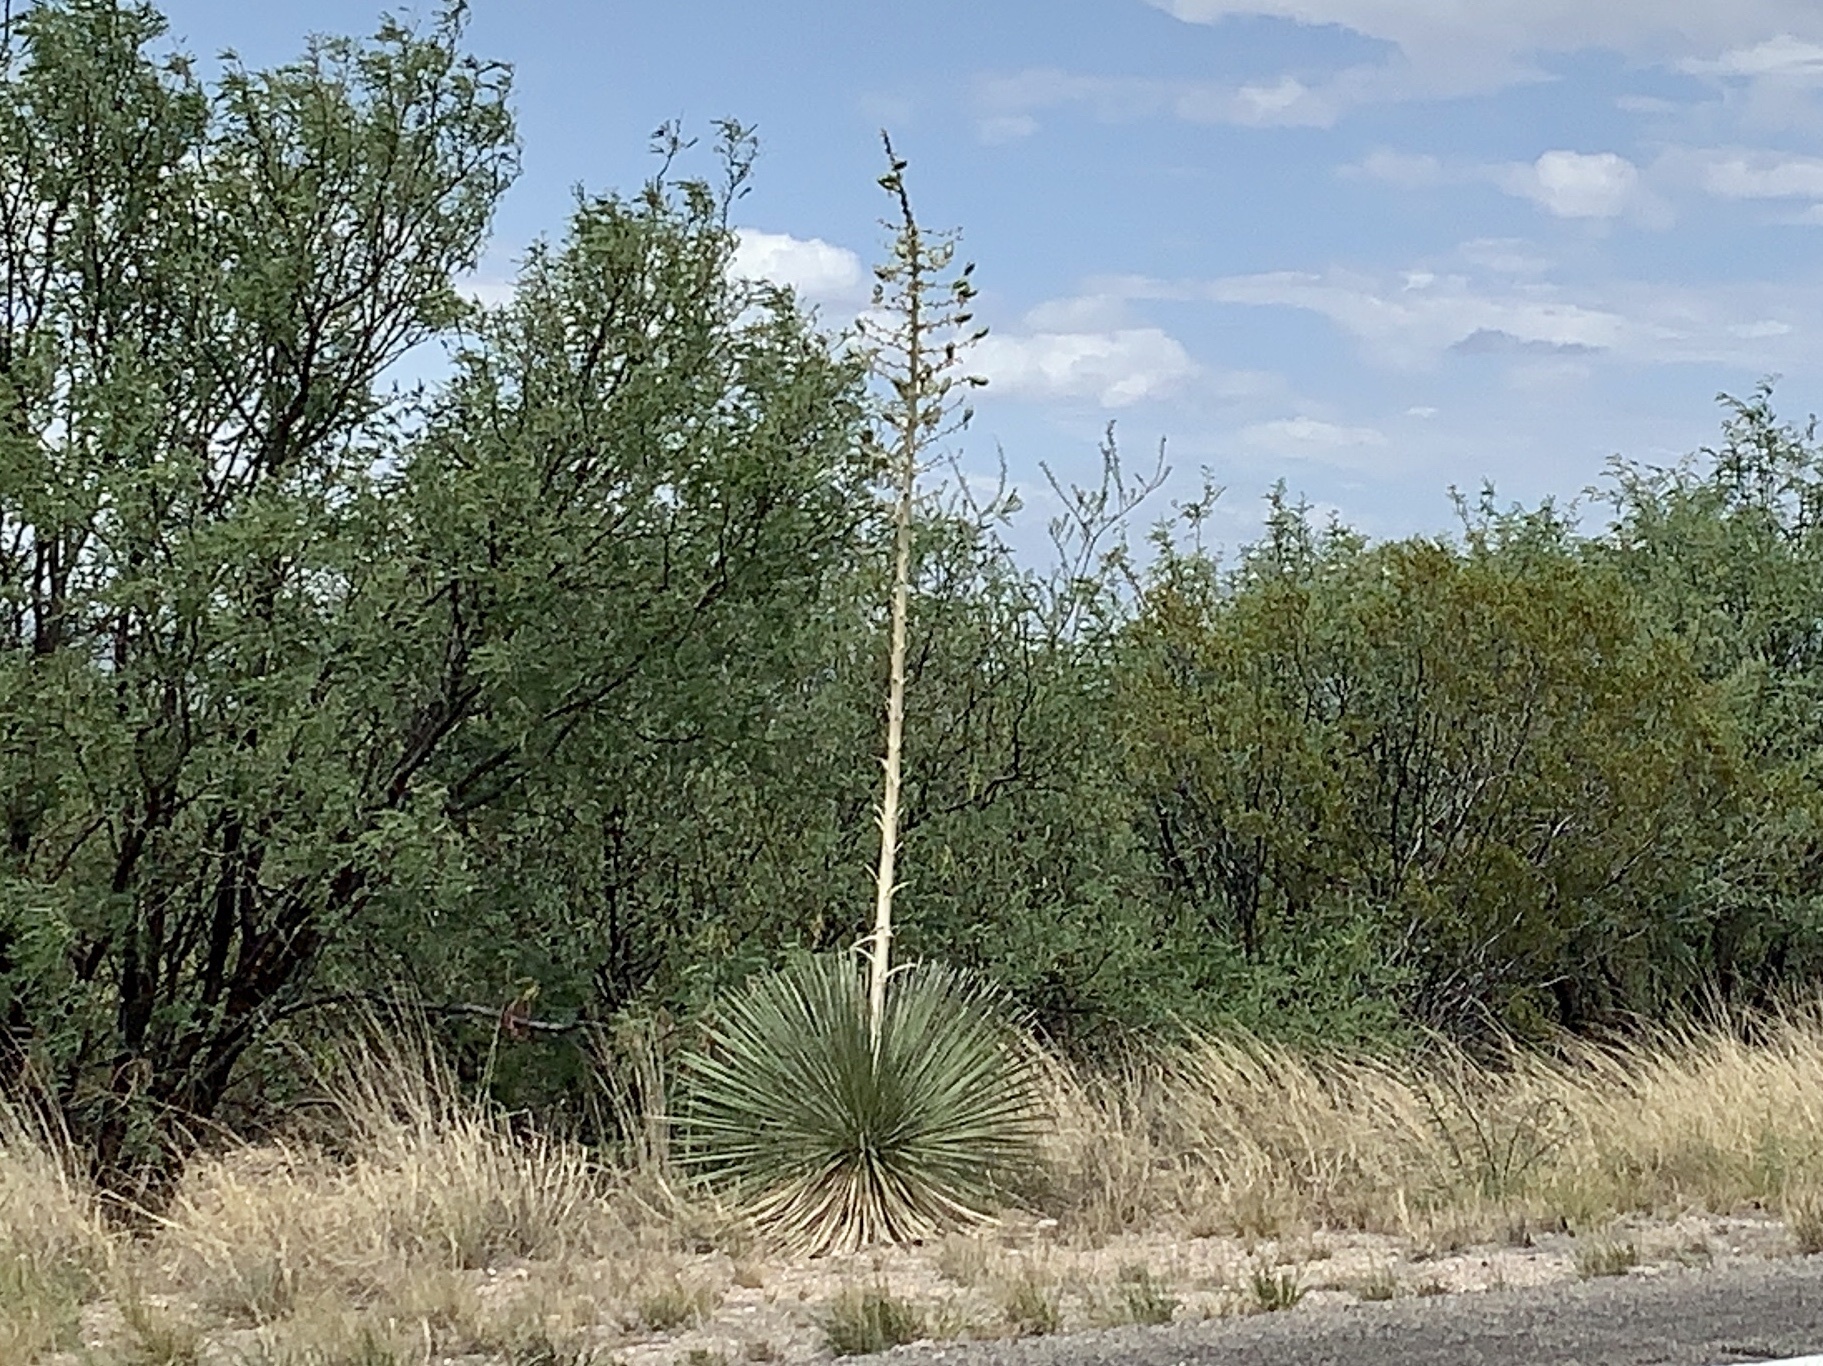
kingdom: Plantae
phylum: Tracheophyta
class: Liliopsida
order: Asparagales
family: Asparagaceae
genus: Yucca
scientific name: Yucca elata
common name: Palmella
